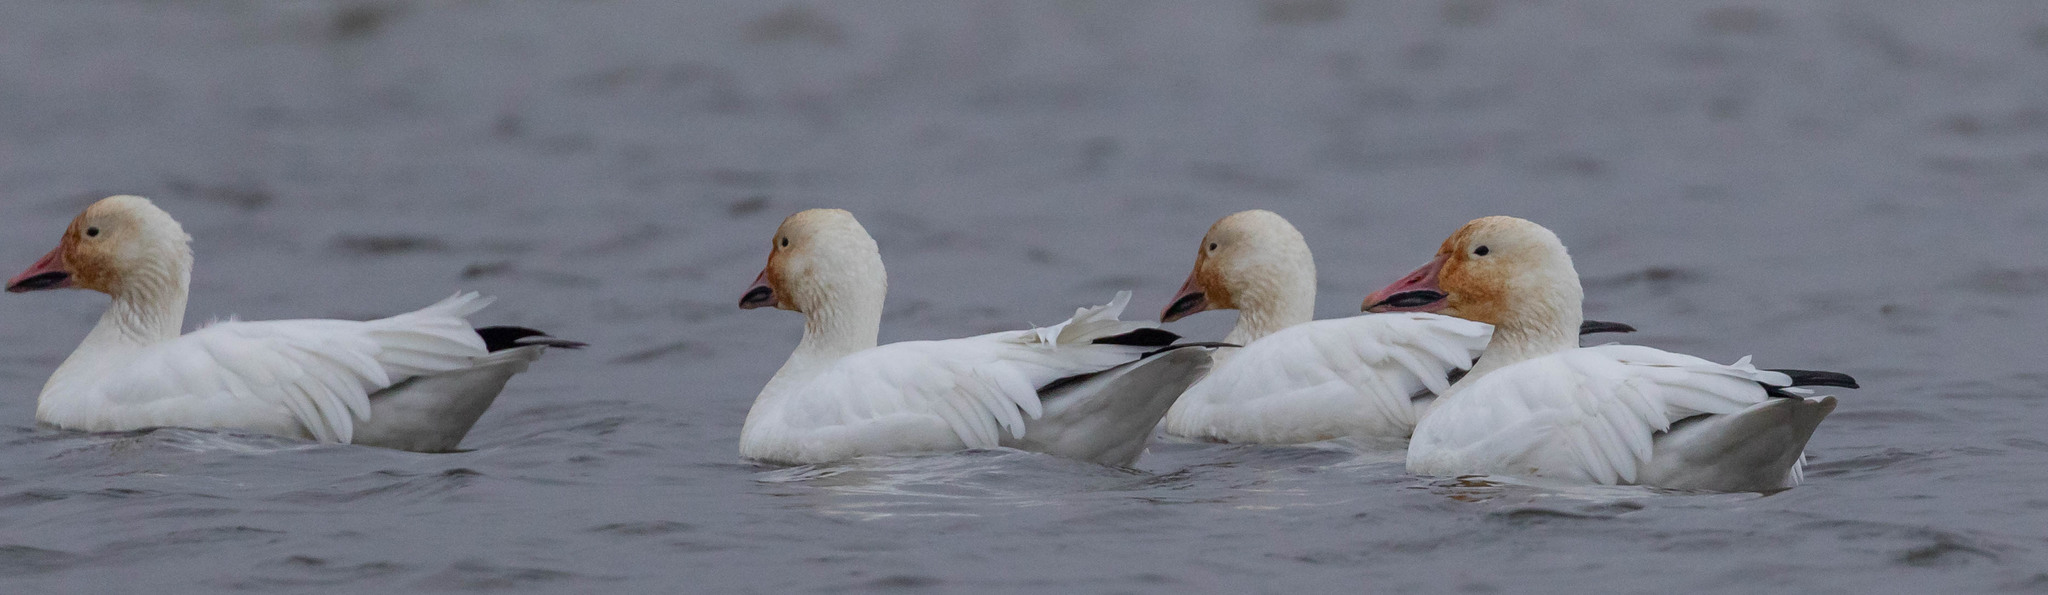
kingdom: Animalia
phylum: Chordata
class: Aves
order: Anseriformes
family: Anatidae
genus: Anser
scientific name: Anser caerulescens
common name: Snow goose
